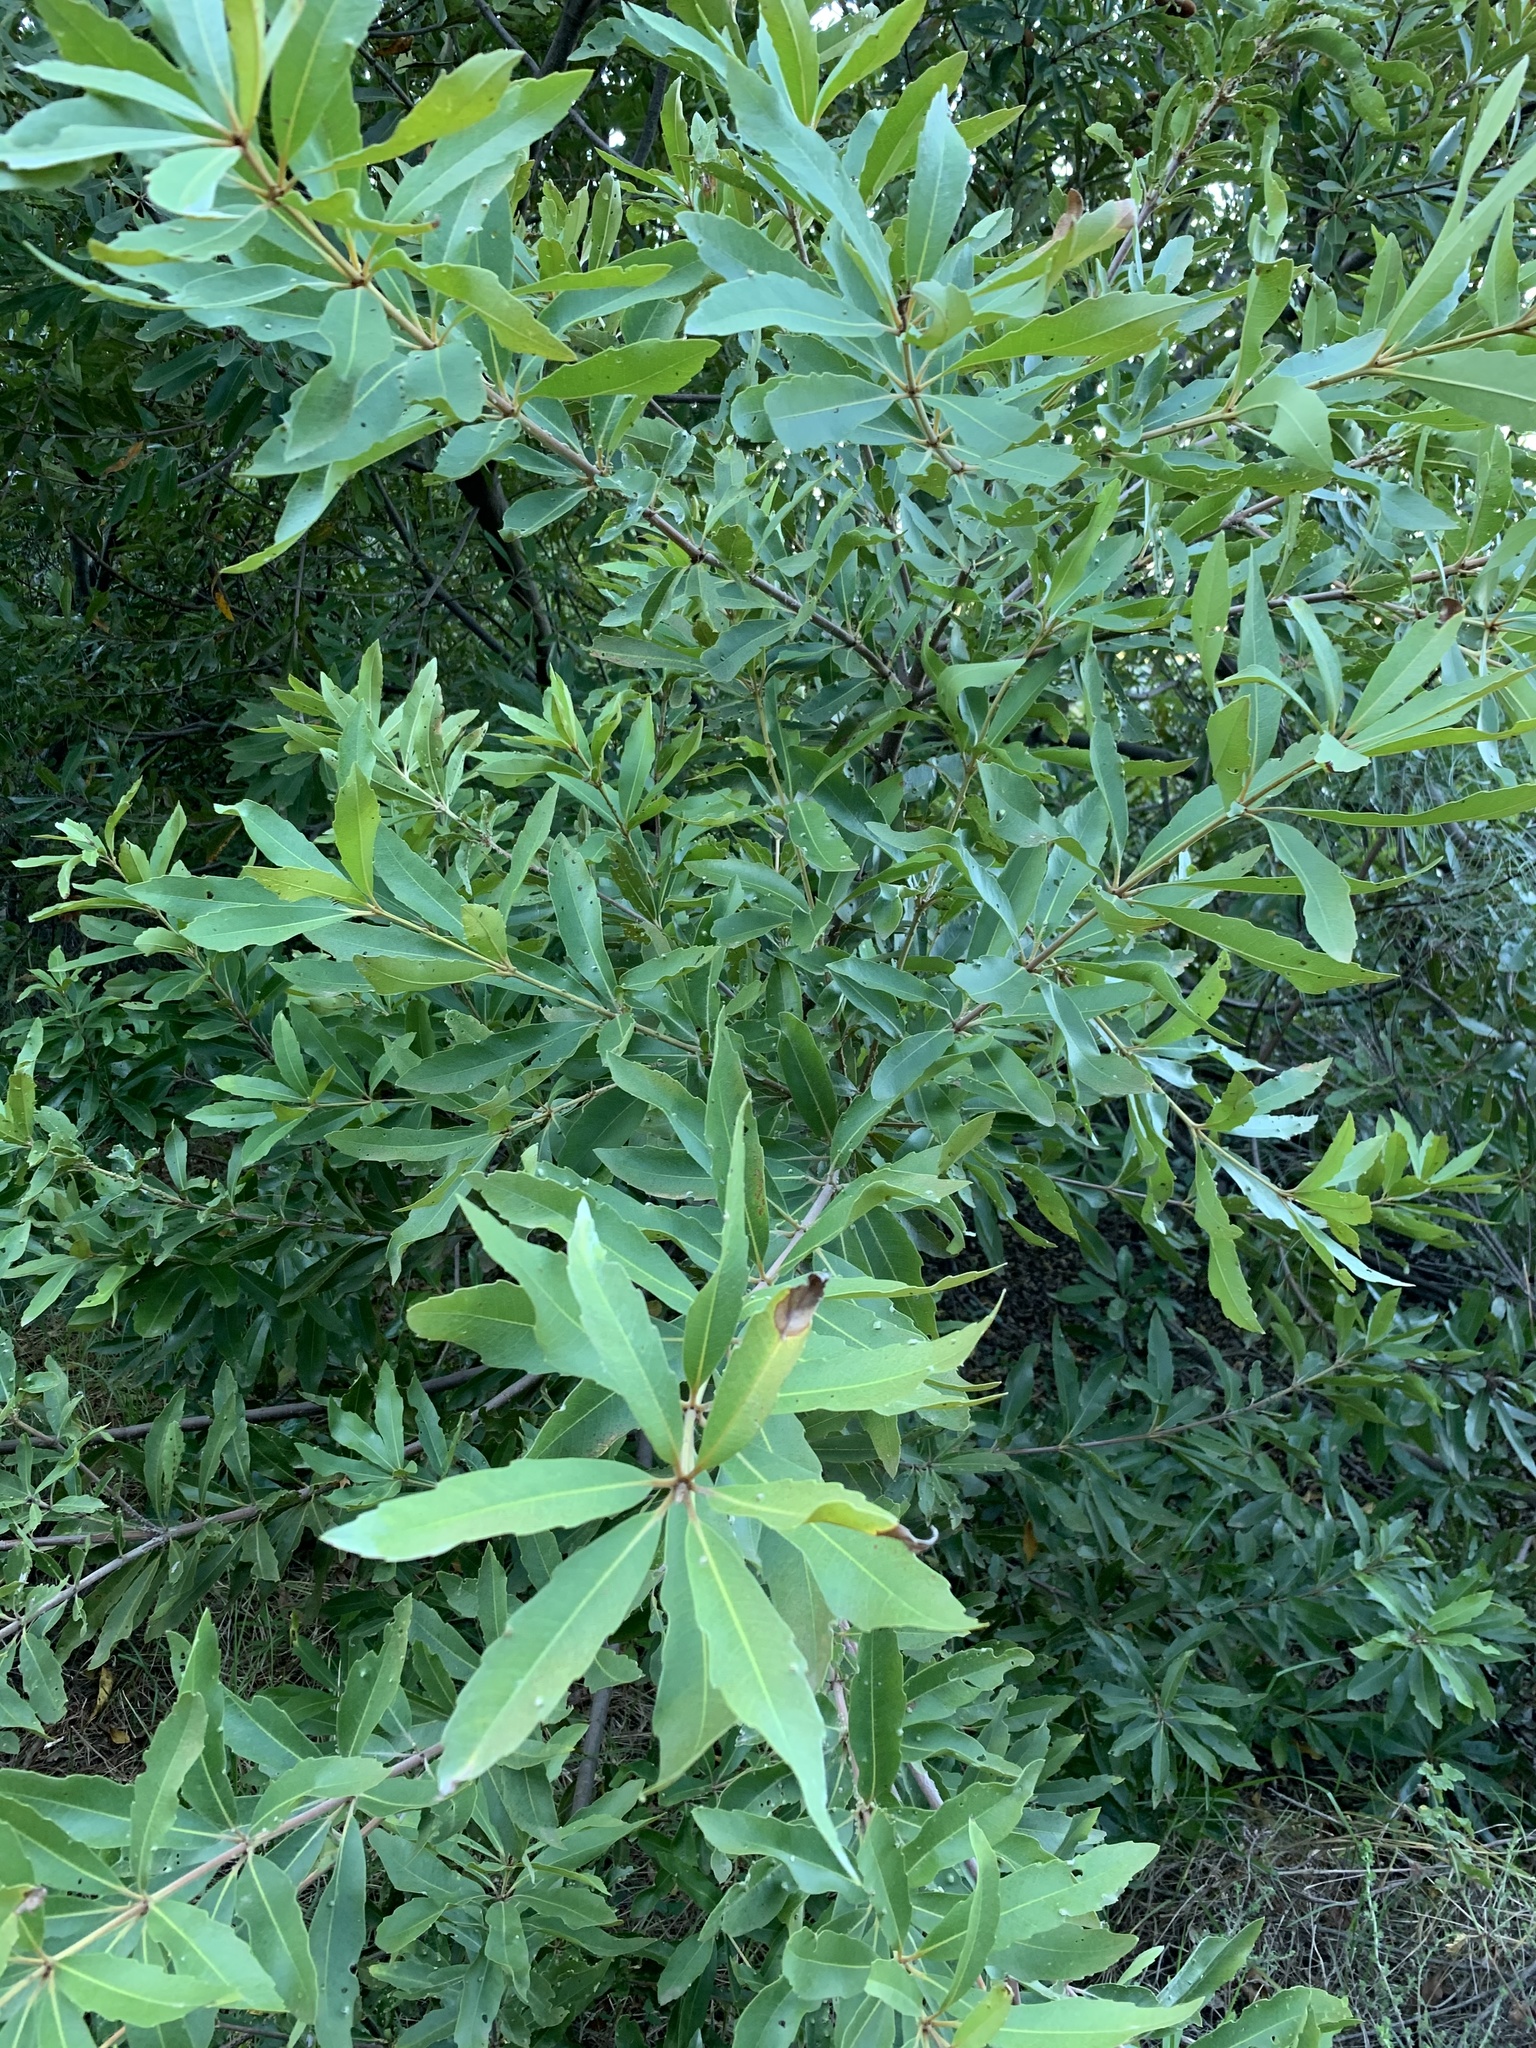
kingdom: Plantae
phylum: Tracheophyta
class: Magnoliopsida
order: Proteales
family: Proteaceae
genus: Brabejum
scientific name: Brabejum stellatifolium
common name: Wild almond
